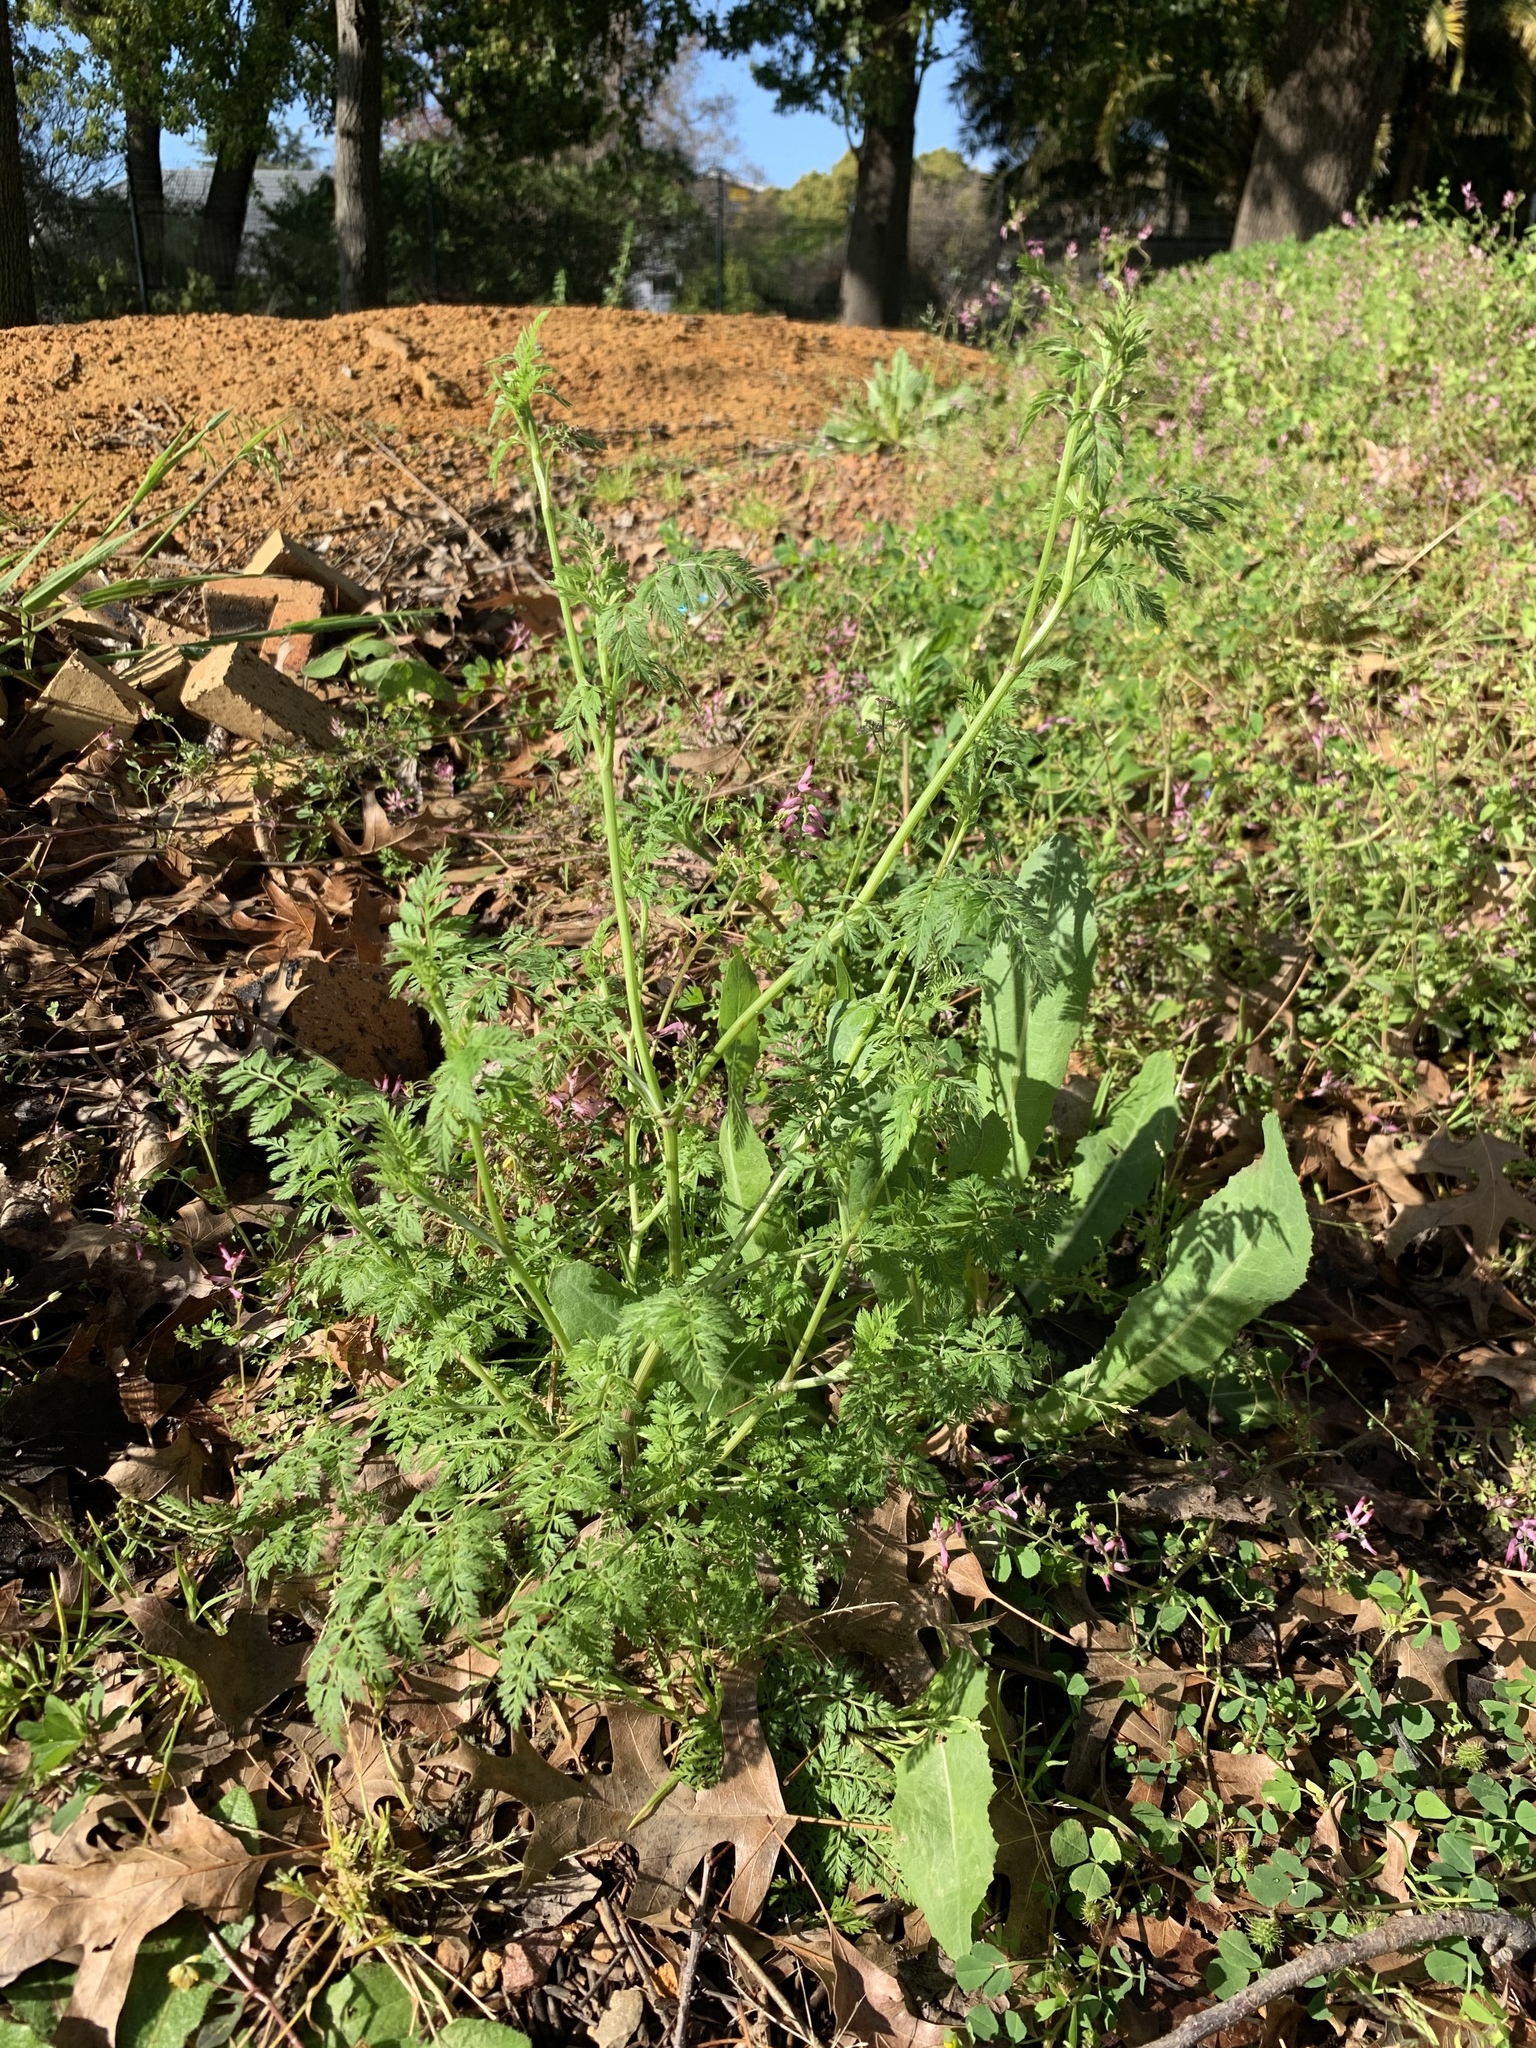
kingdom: Plantae
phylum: Tracheophyta
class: Magnoliopsida
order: Apiales
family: Apiaceae
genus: Torilis
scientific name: Torilis africana
